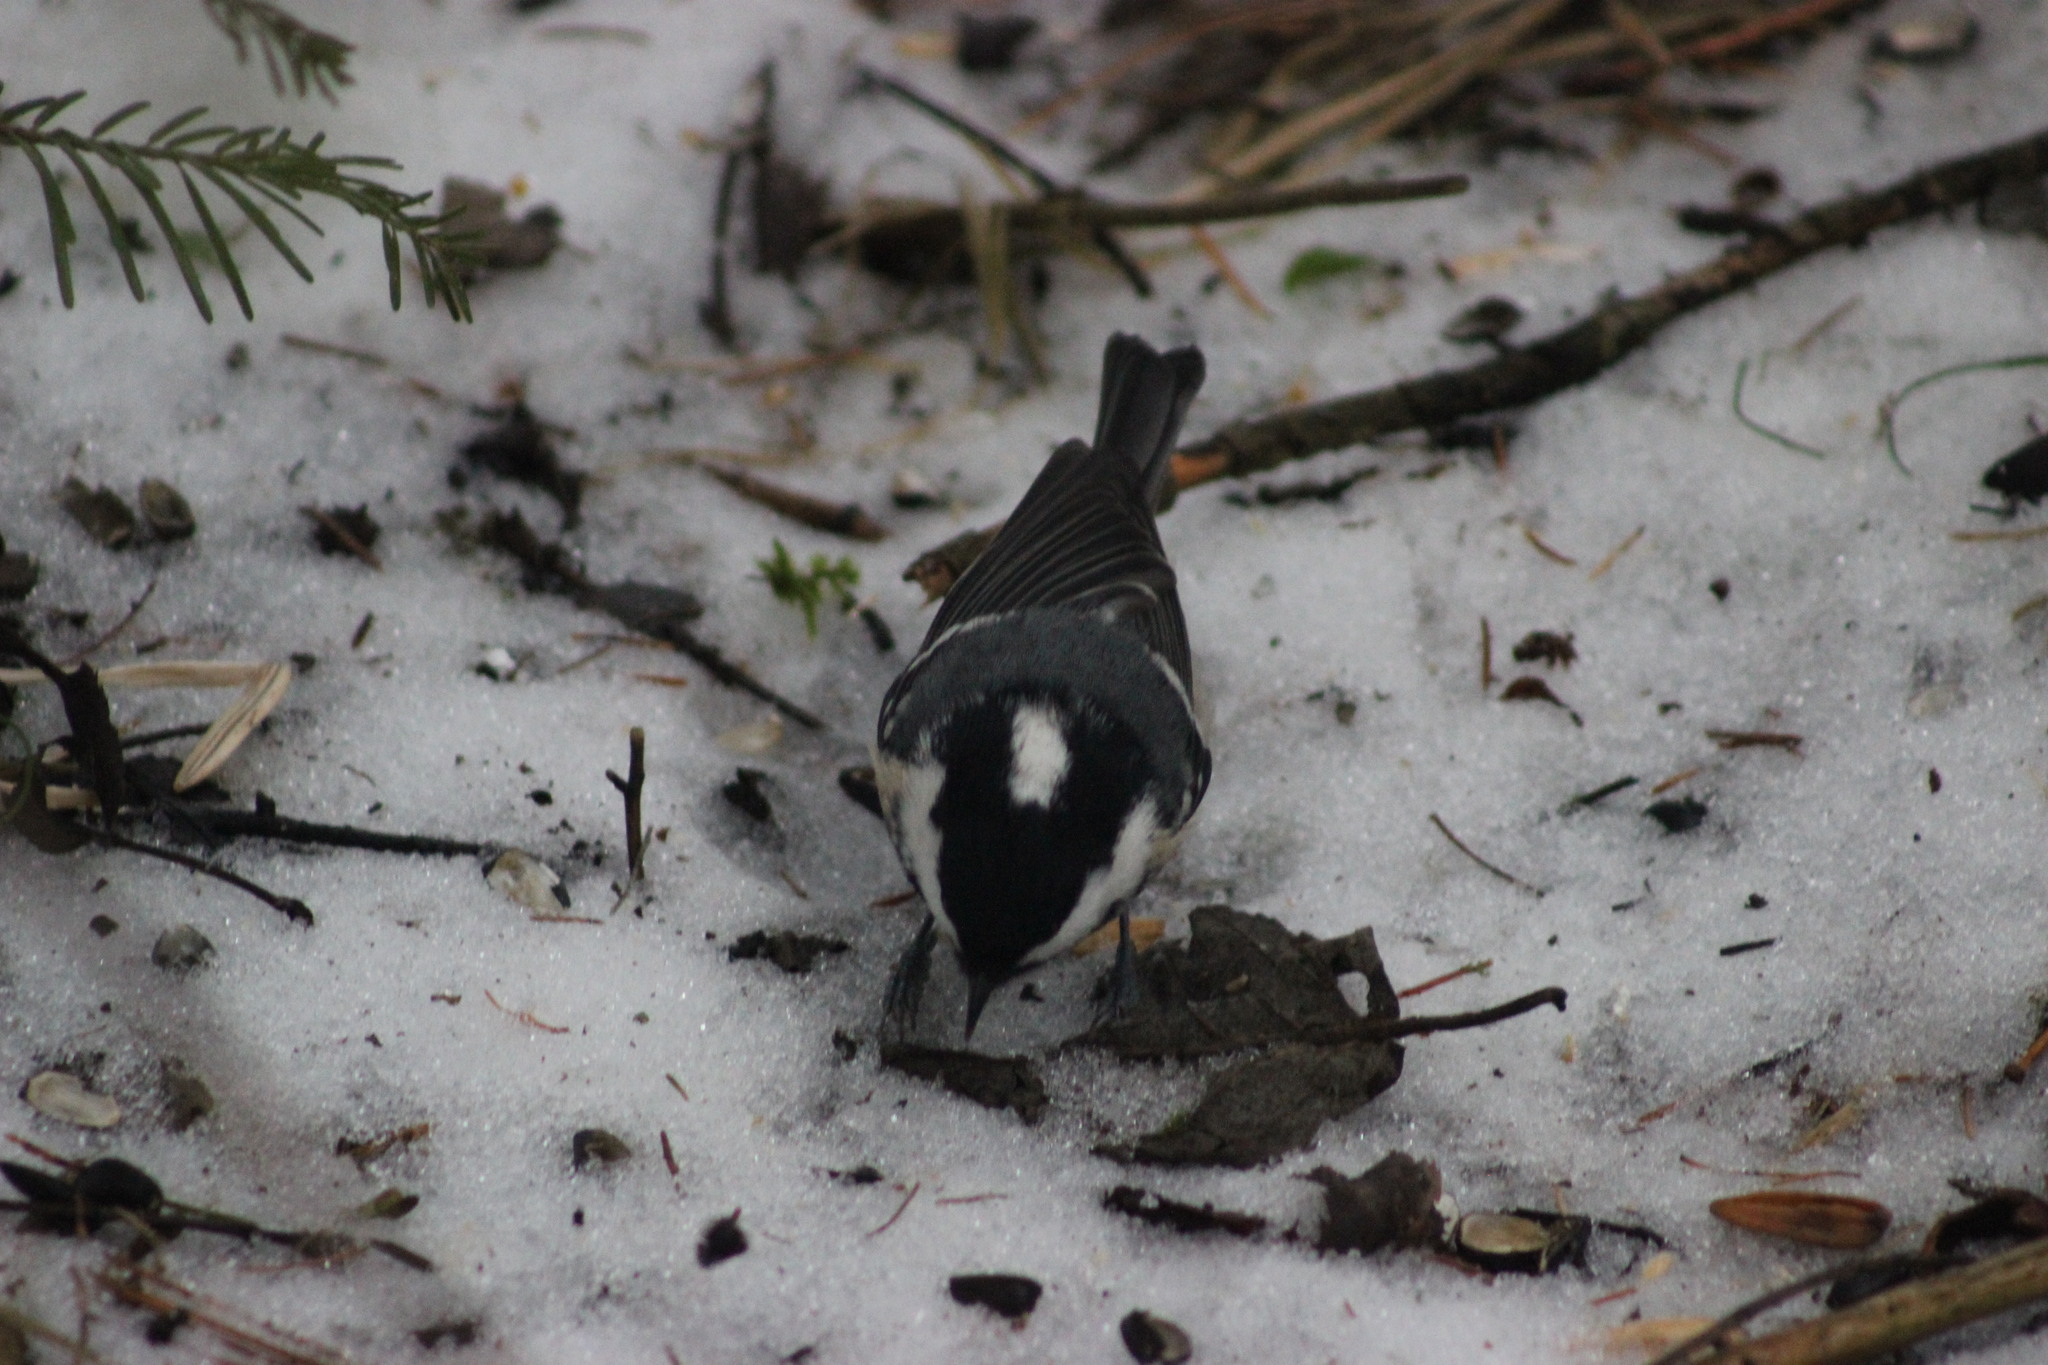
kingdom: Animalia
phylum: Chordata
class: Aves
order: Passeriformes
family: Paridae
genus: Periparus
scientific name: Periparus ater
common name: Coal tit
